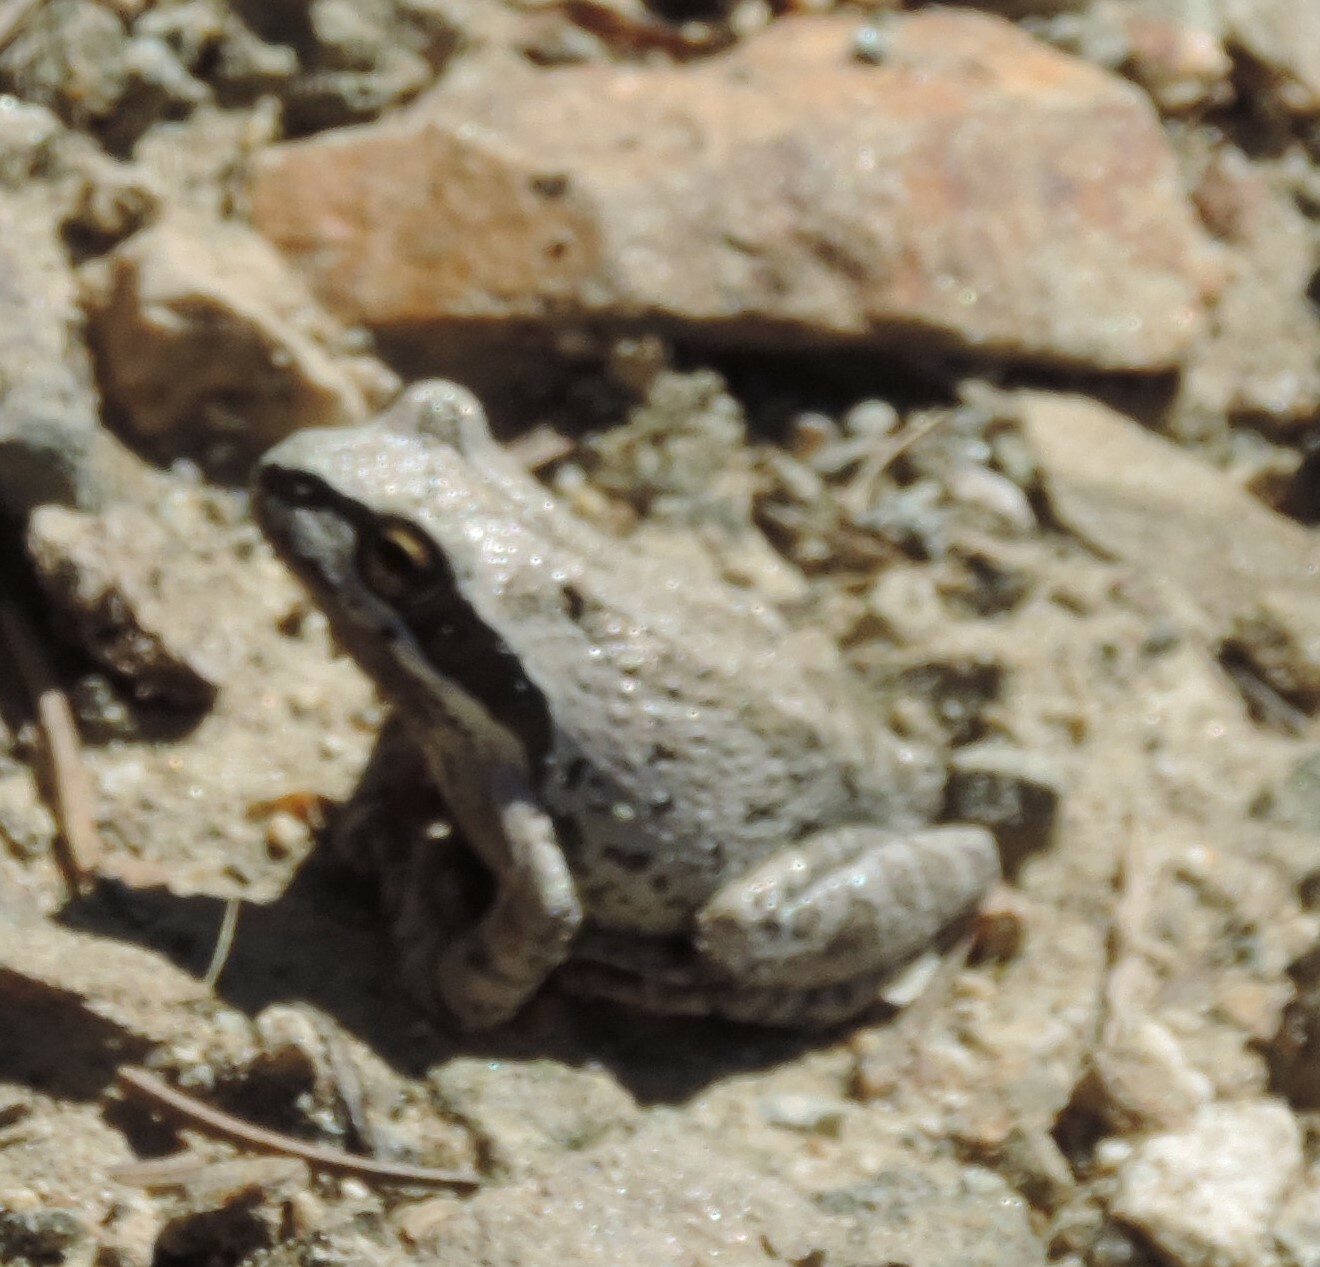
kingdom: Animalia
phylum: Chordata
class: Amphibia
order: Anura
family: Hylidae
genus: Pseudacris
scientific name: Pseudacris regilla
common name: Pacific chorus frog
